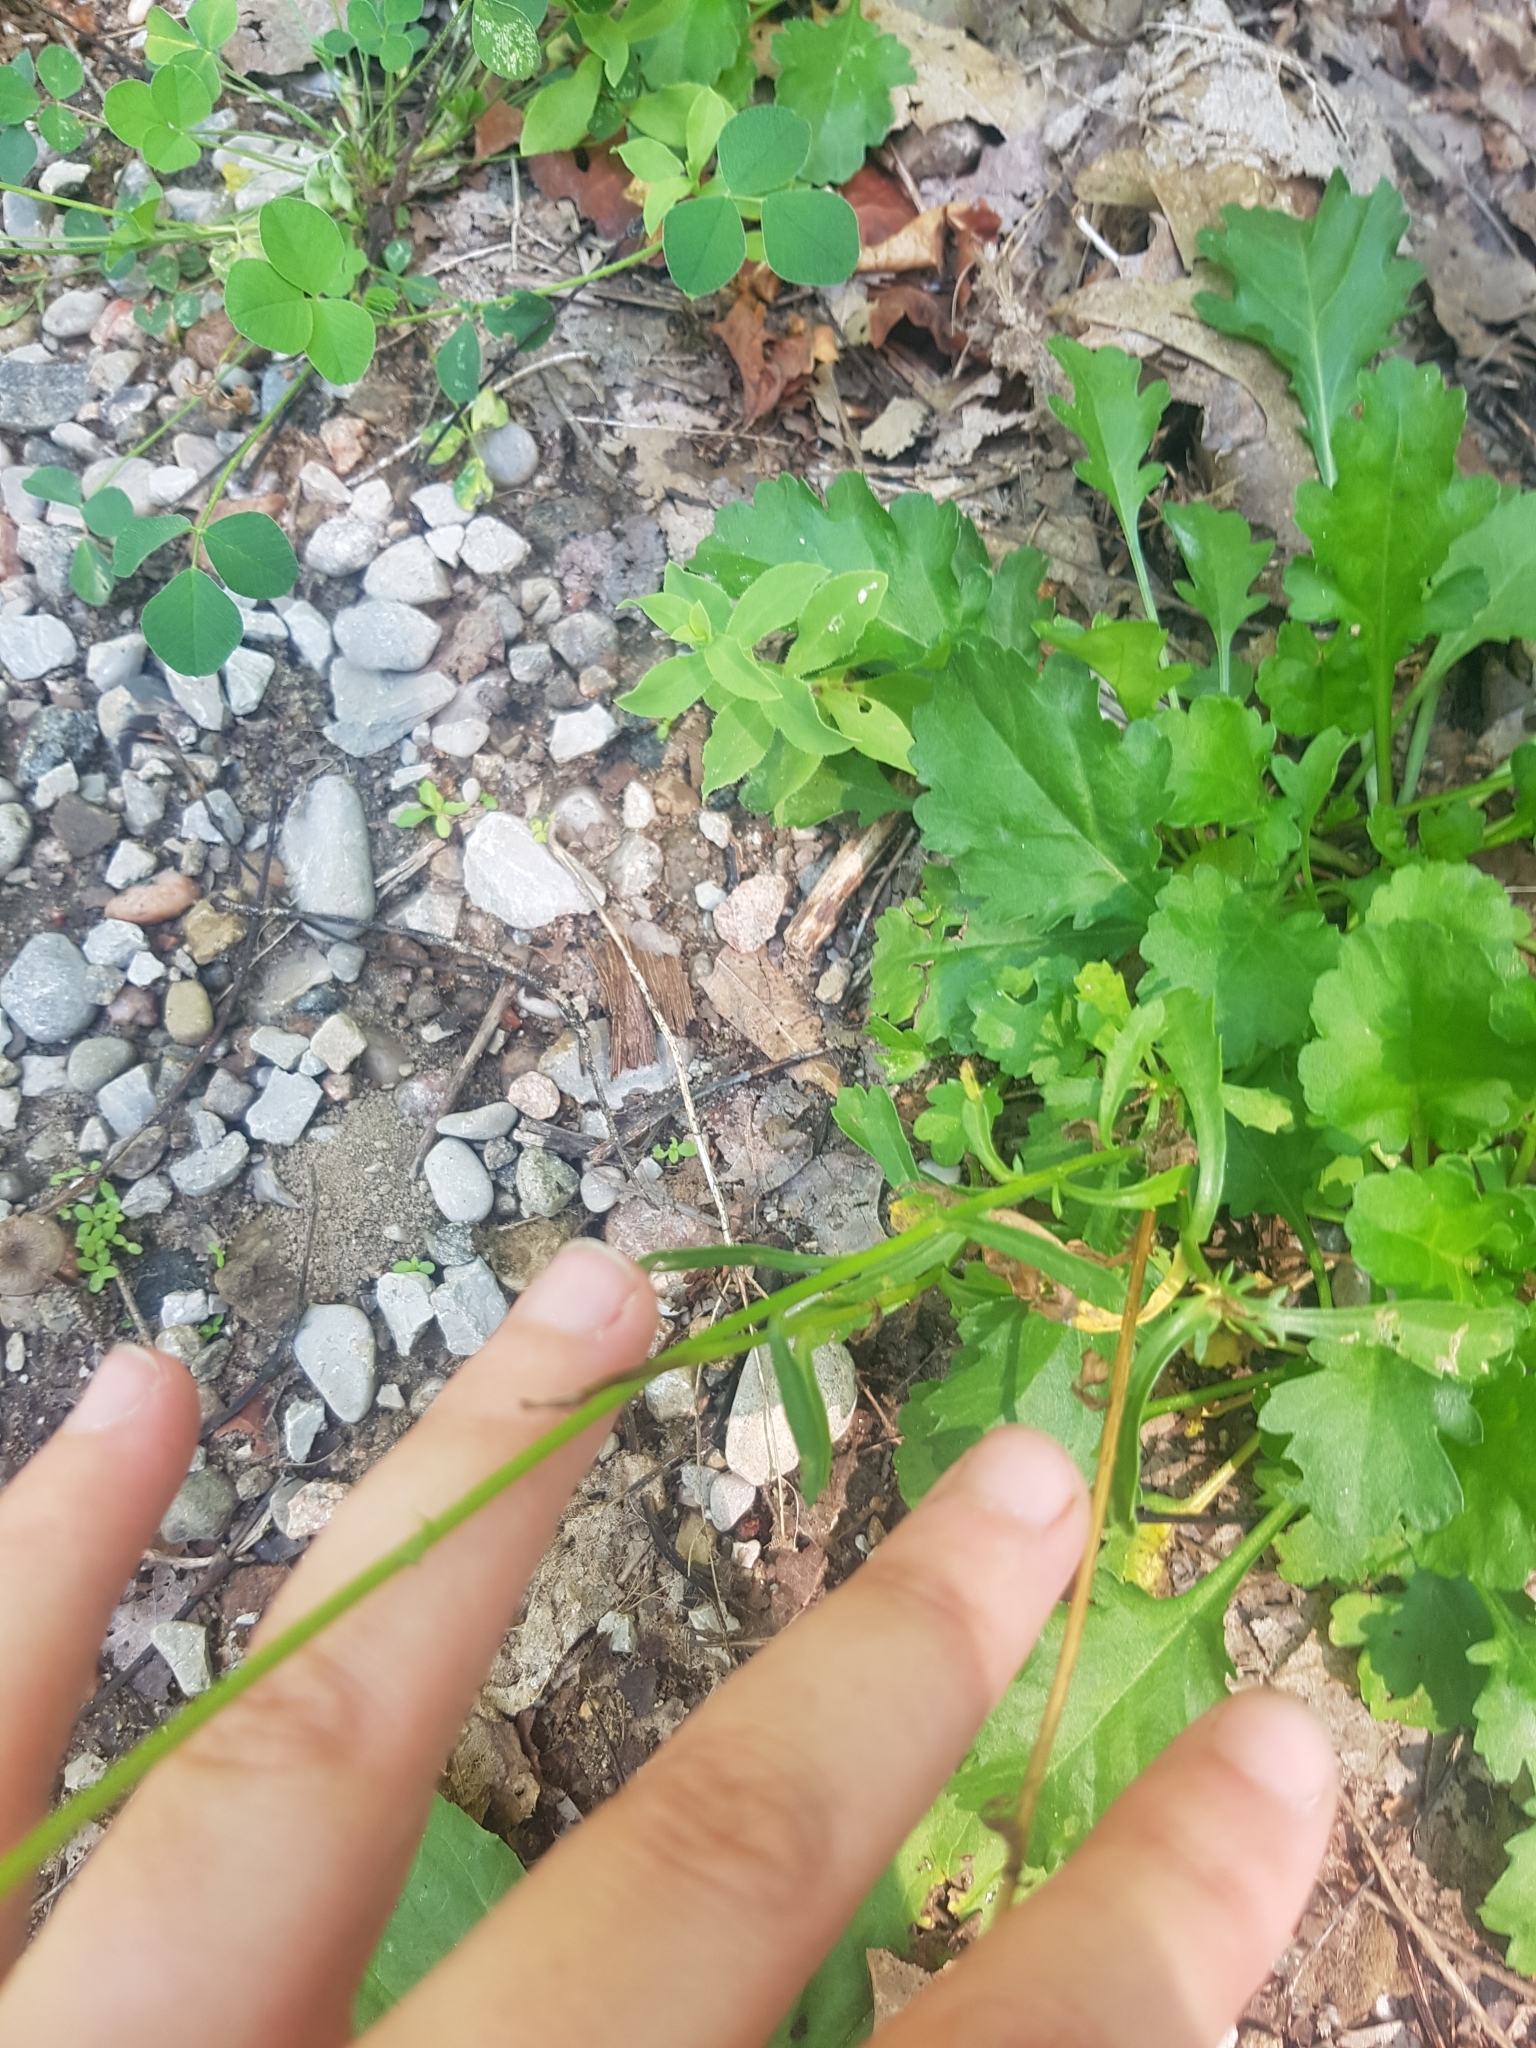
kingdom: Plantae
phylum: Tracheophyta
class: Magnoliopsida
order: Asterales
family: Asteraceae
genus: Leucanthemum
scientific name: Leucanthemum vulgare
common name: Oxeye daisy
